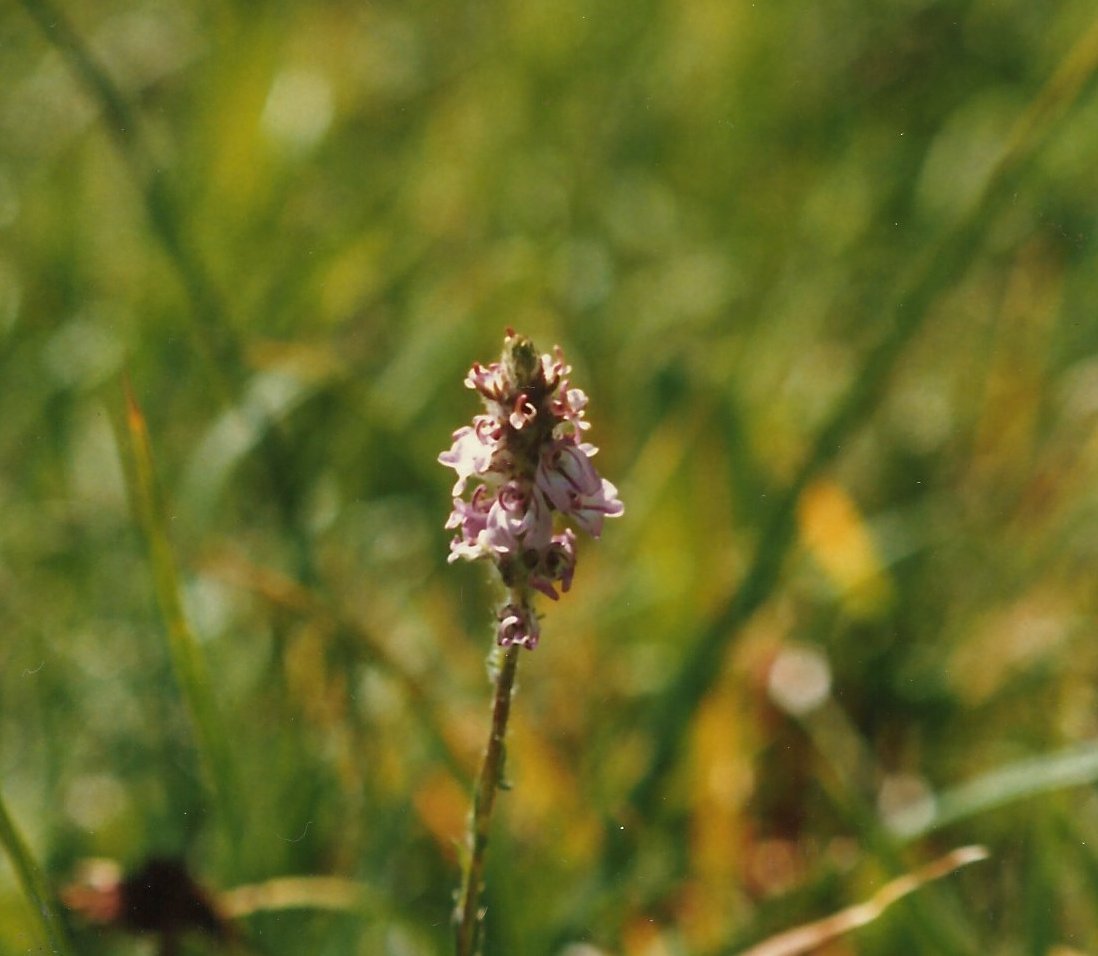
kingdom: Plantae
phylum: Tracheophyta
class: Magnoliopsida
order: Lamiales
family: Orobanchaceae
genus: Pedicularis
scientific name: Pedicularis attollens
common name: Slender pedicularis
